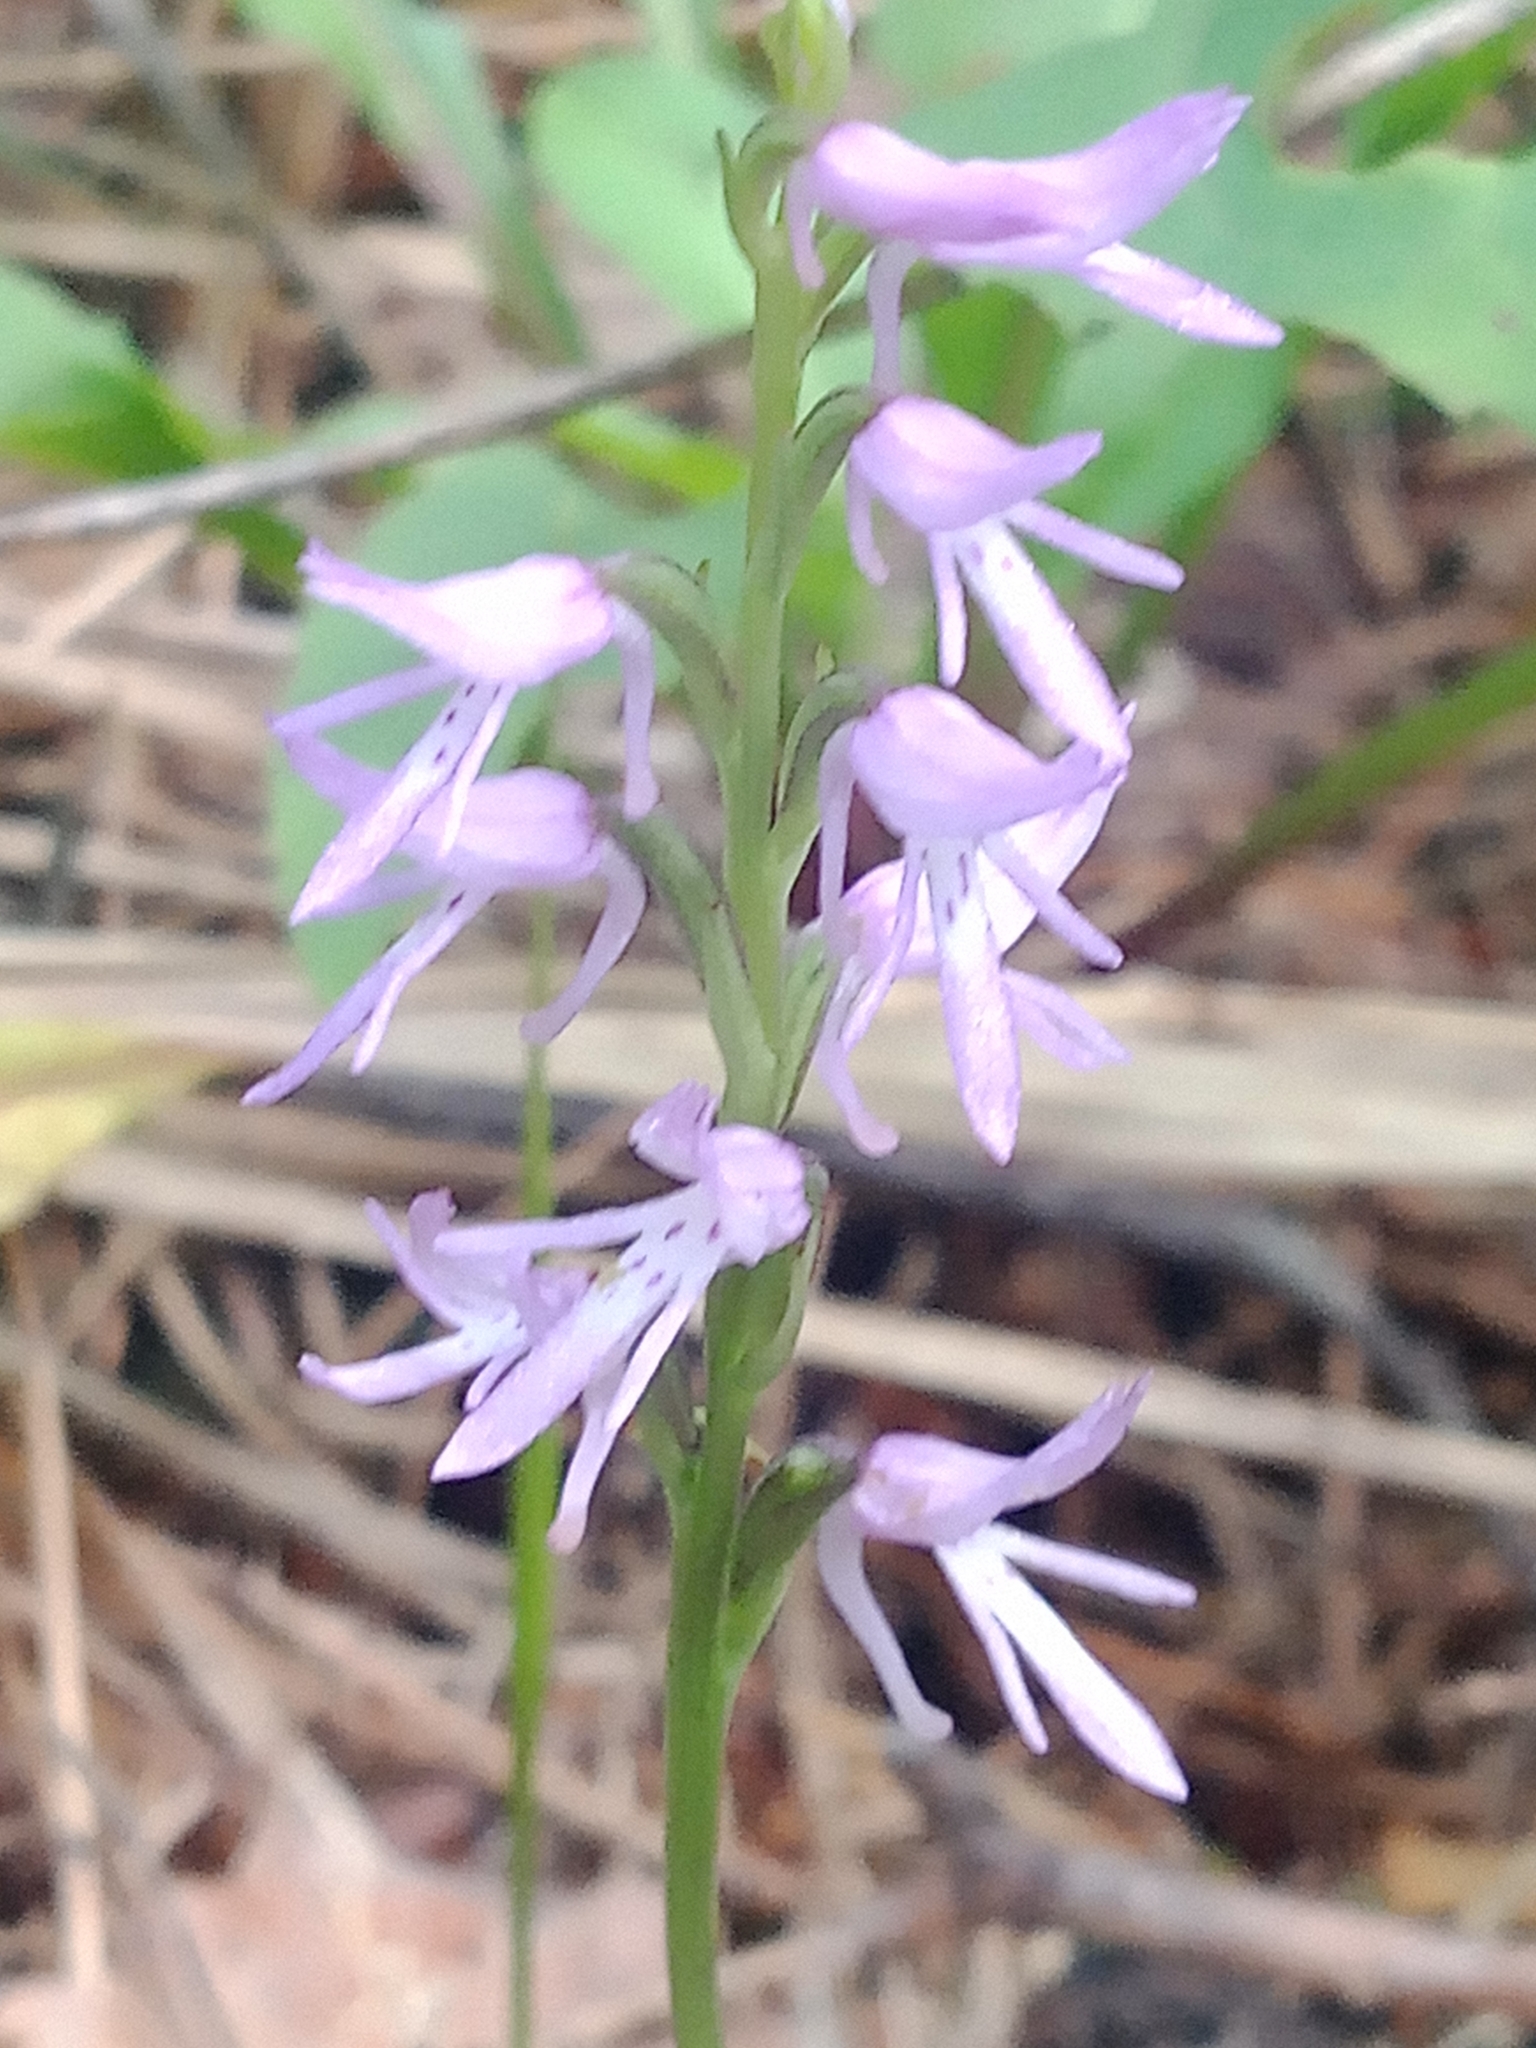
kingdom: Plantae
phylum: Tracheophyta
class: Liliopsida
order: Asparagales
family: Orchidaceae
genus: Hemipilia
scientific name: Hemipilia cucullata
